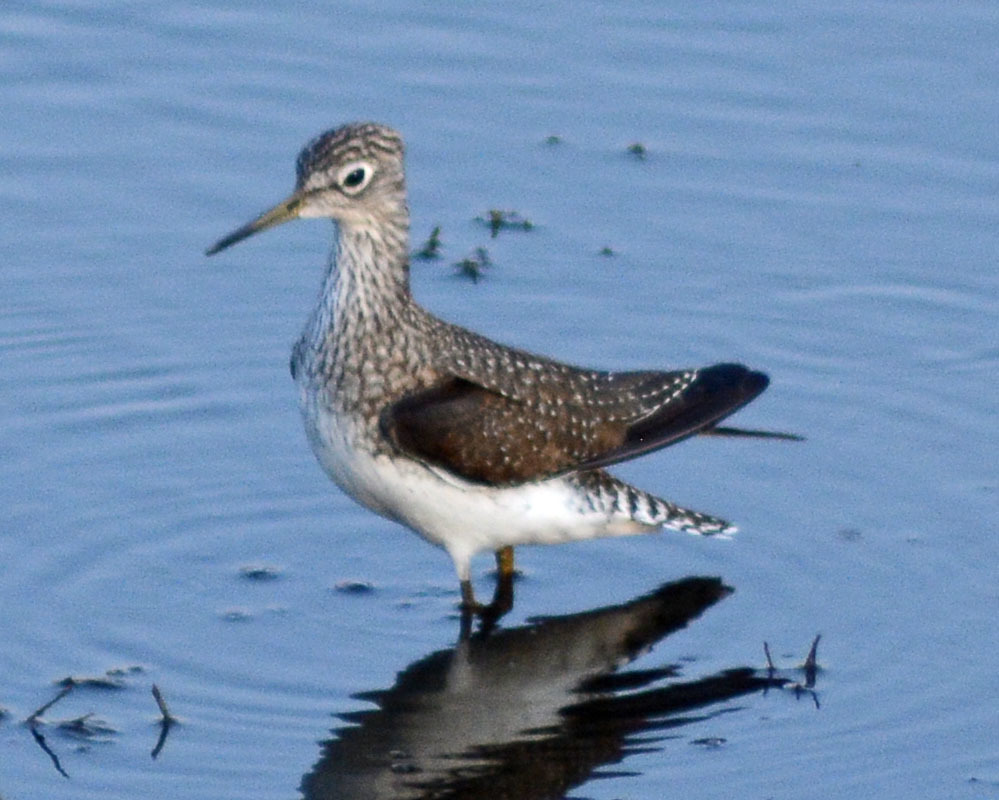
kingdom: Animalia
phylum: Chordata
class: Aves
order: Charadriiformes
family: Scolopacidae
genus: Tringa
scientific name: Tringa solitaria
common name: Solitary sandpiper
